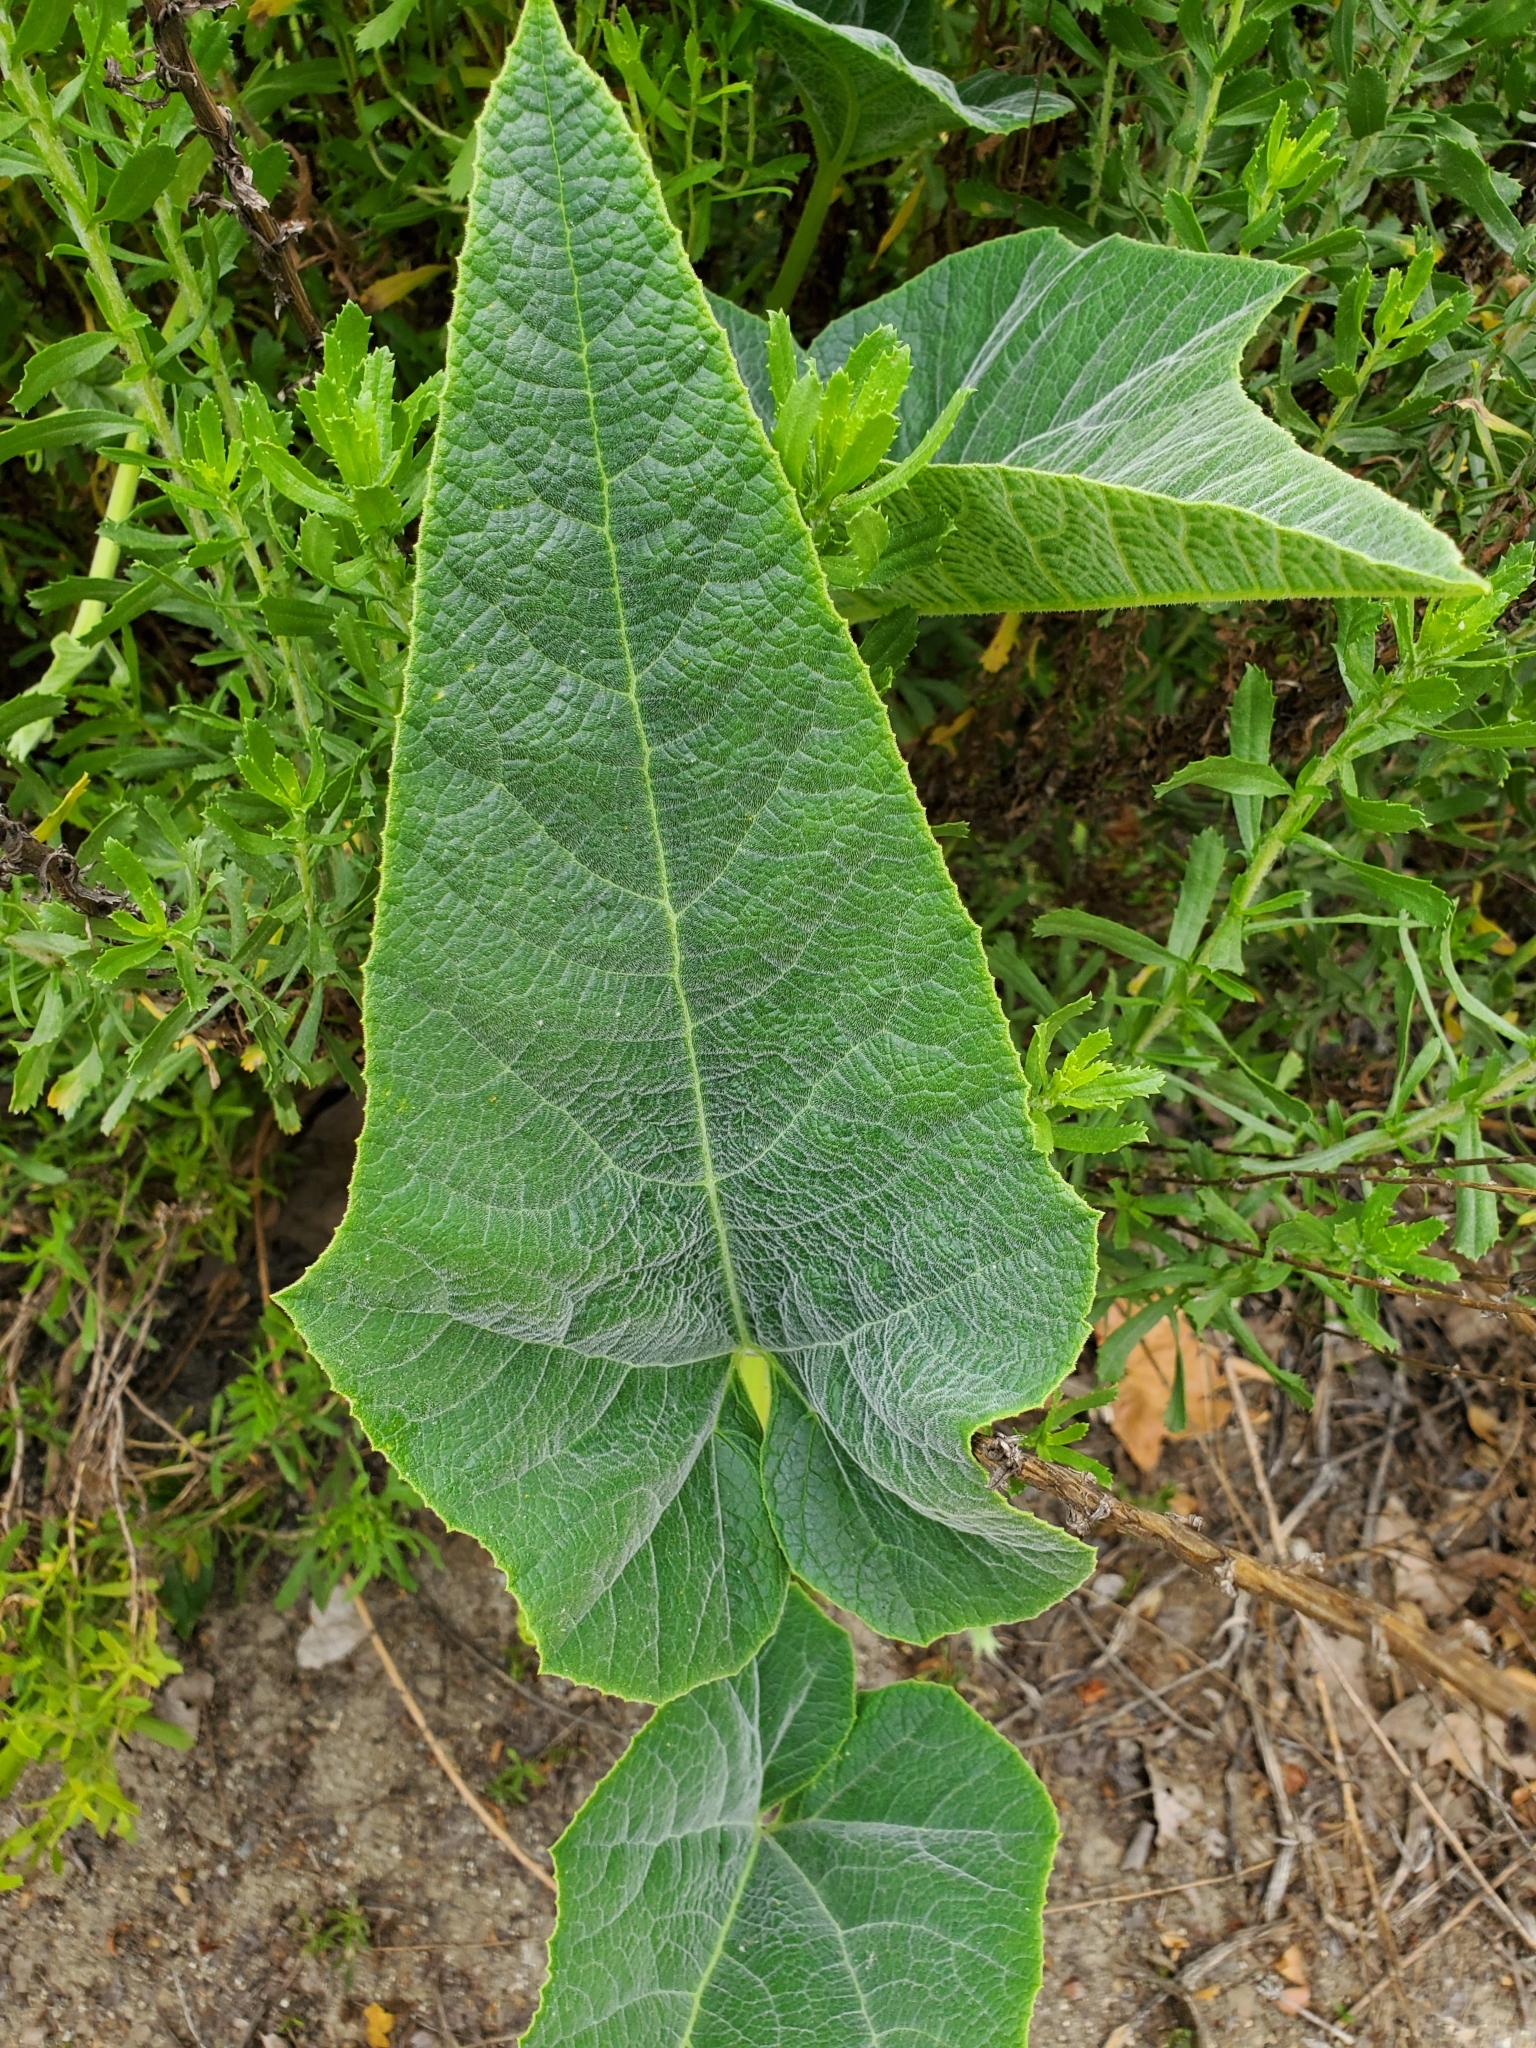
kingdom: Plantae
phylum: Tracheophyta
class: Magnoliopsida
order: Cucurbitales
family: Cucurbitaceae
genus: Cucurbita
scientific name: Cucurbita foetidissima
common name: Buffalo gourd
